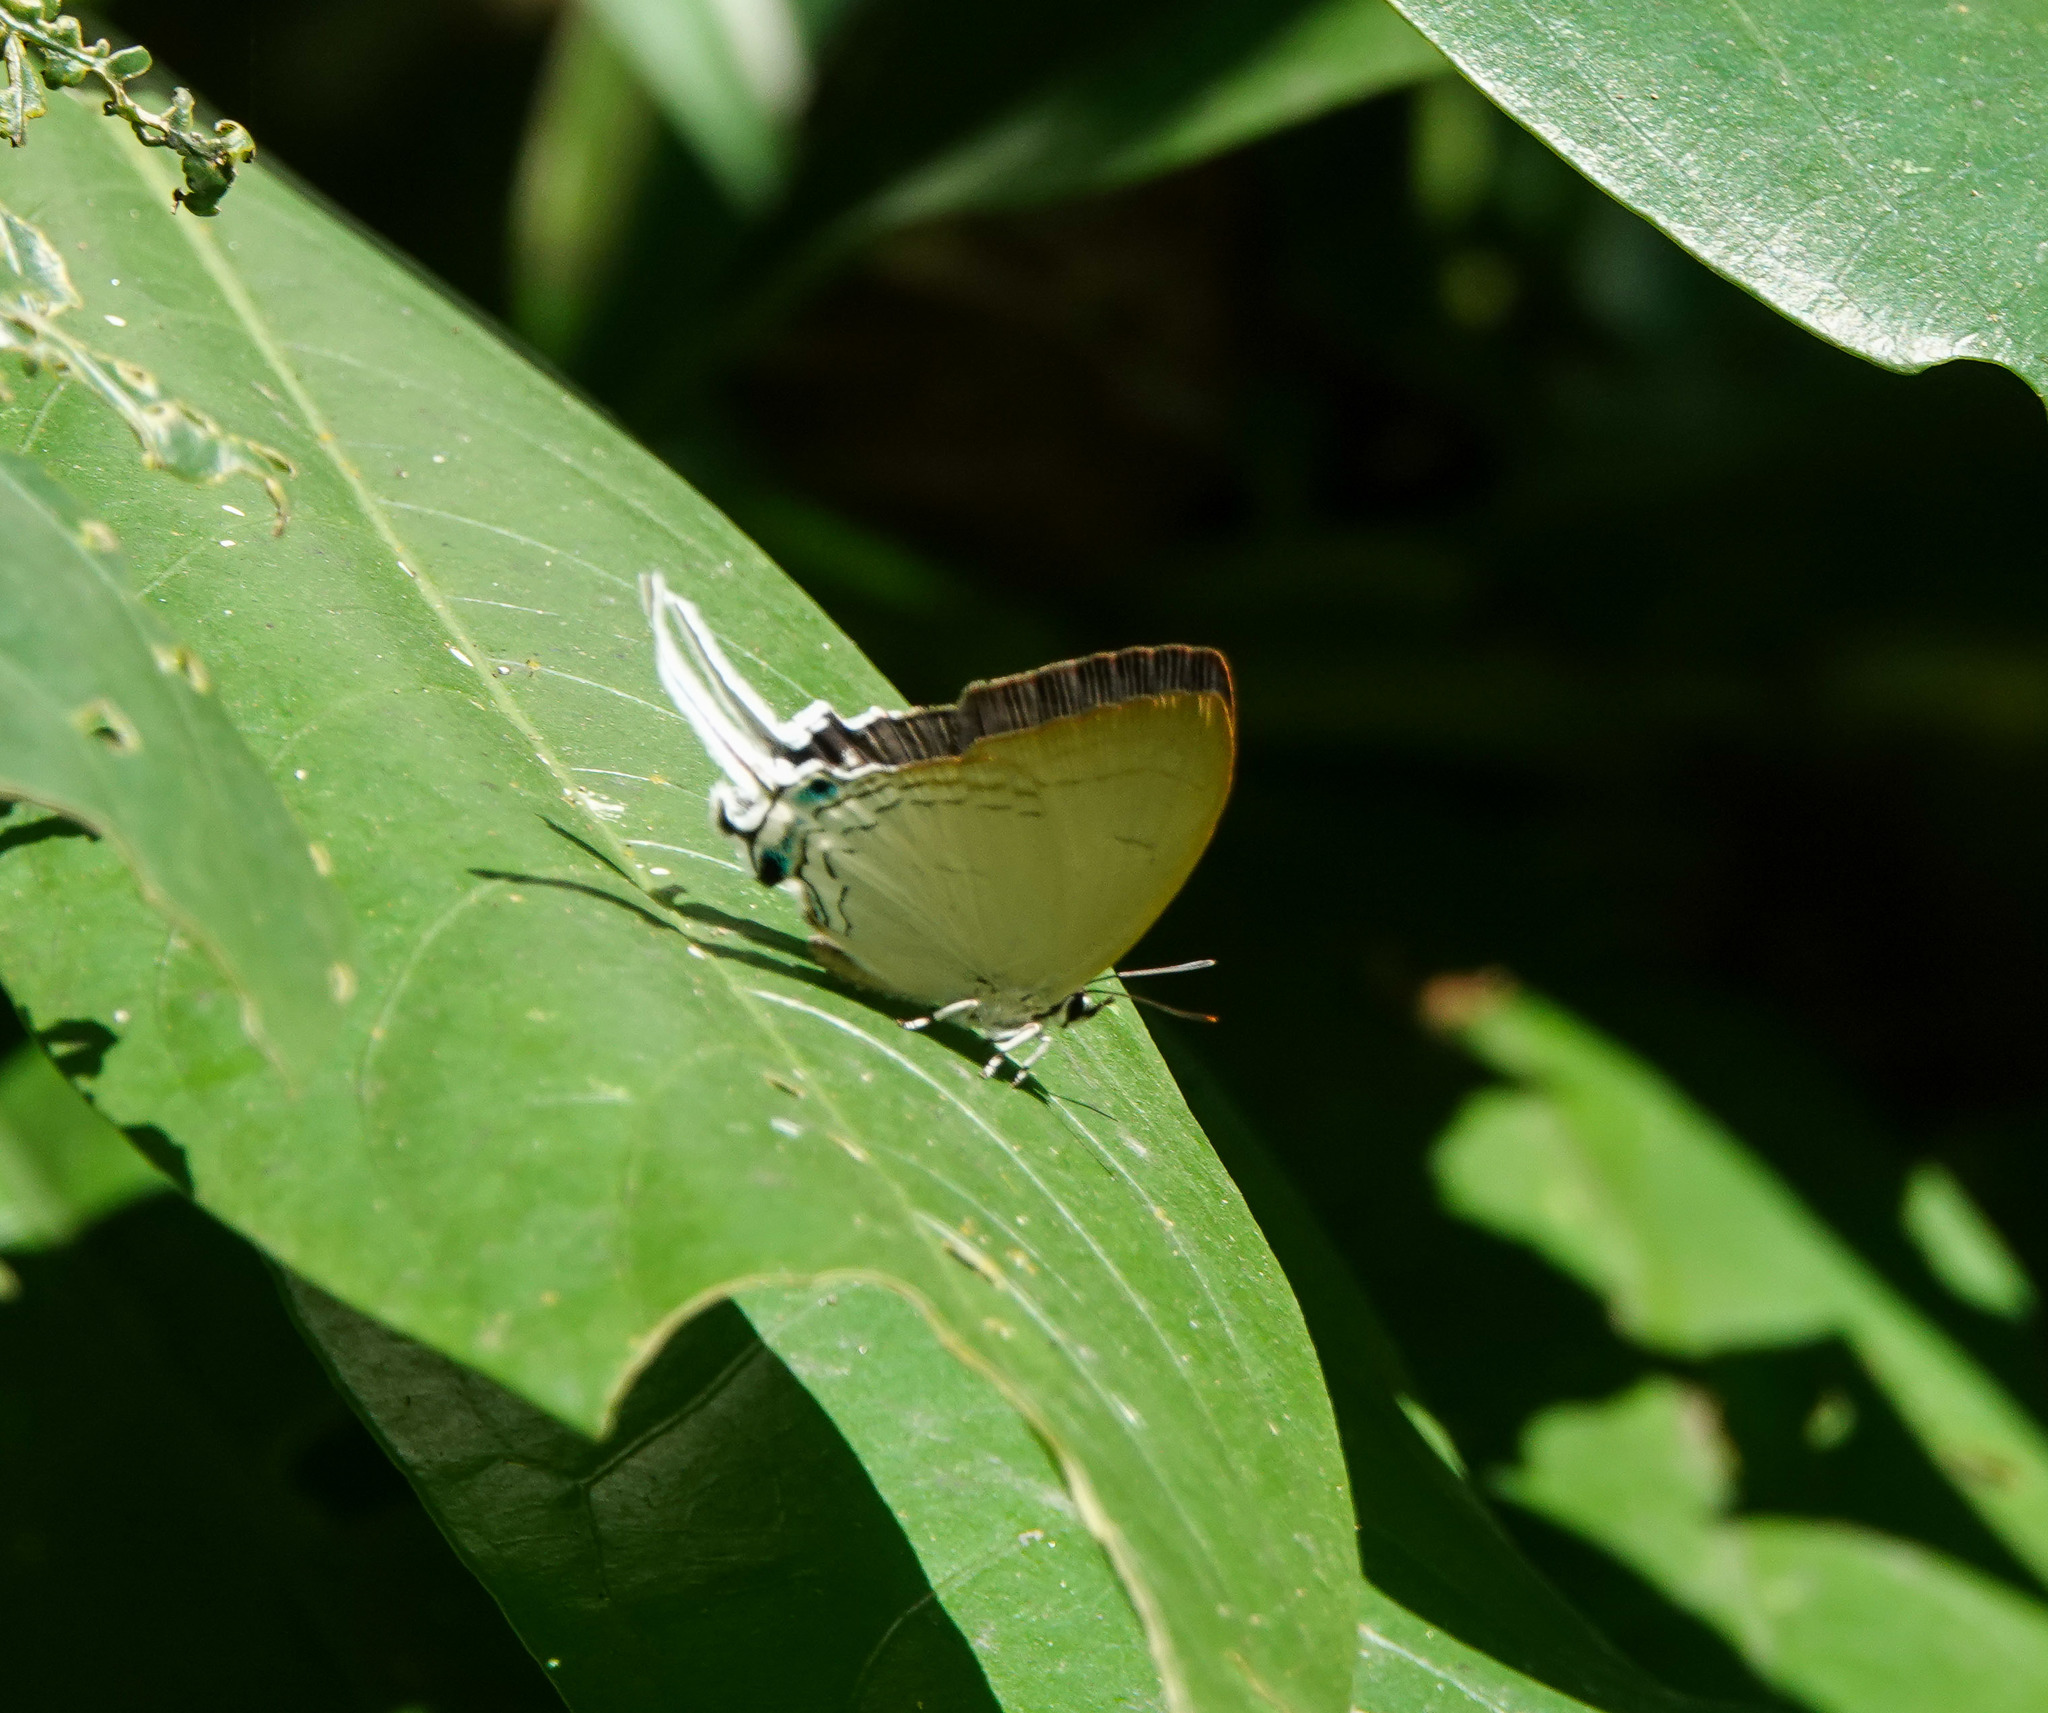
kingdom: Animalia
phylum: Arthropoda
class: Insecta
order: Lepidoptera
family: Lycaenidae
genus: Cheritra
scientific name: Cheritra freja
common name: Common imperial
